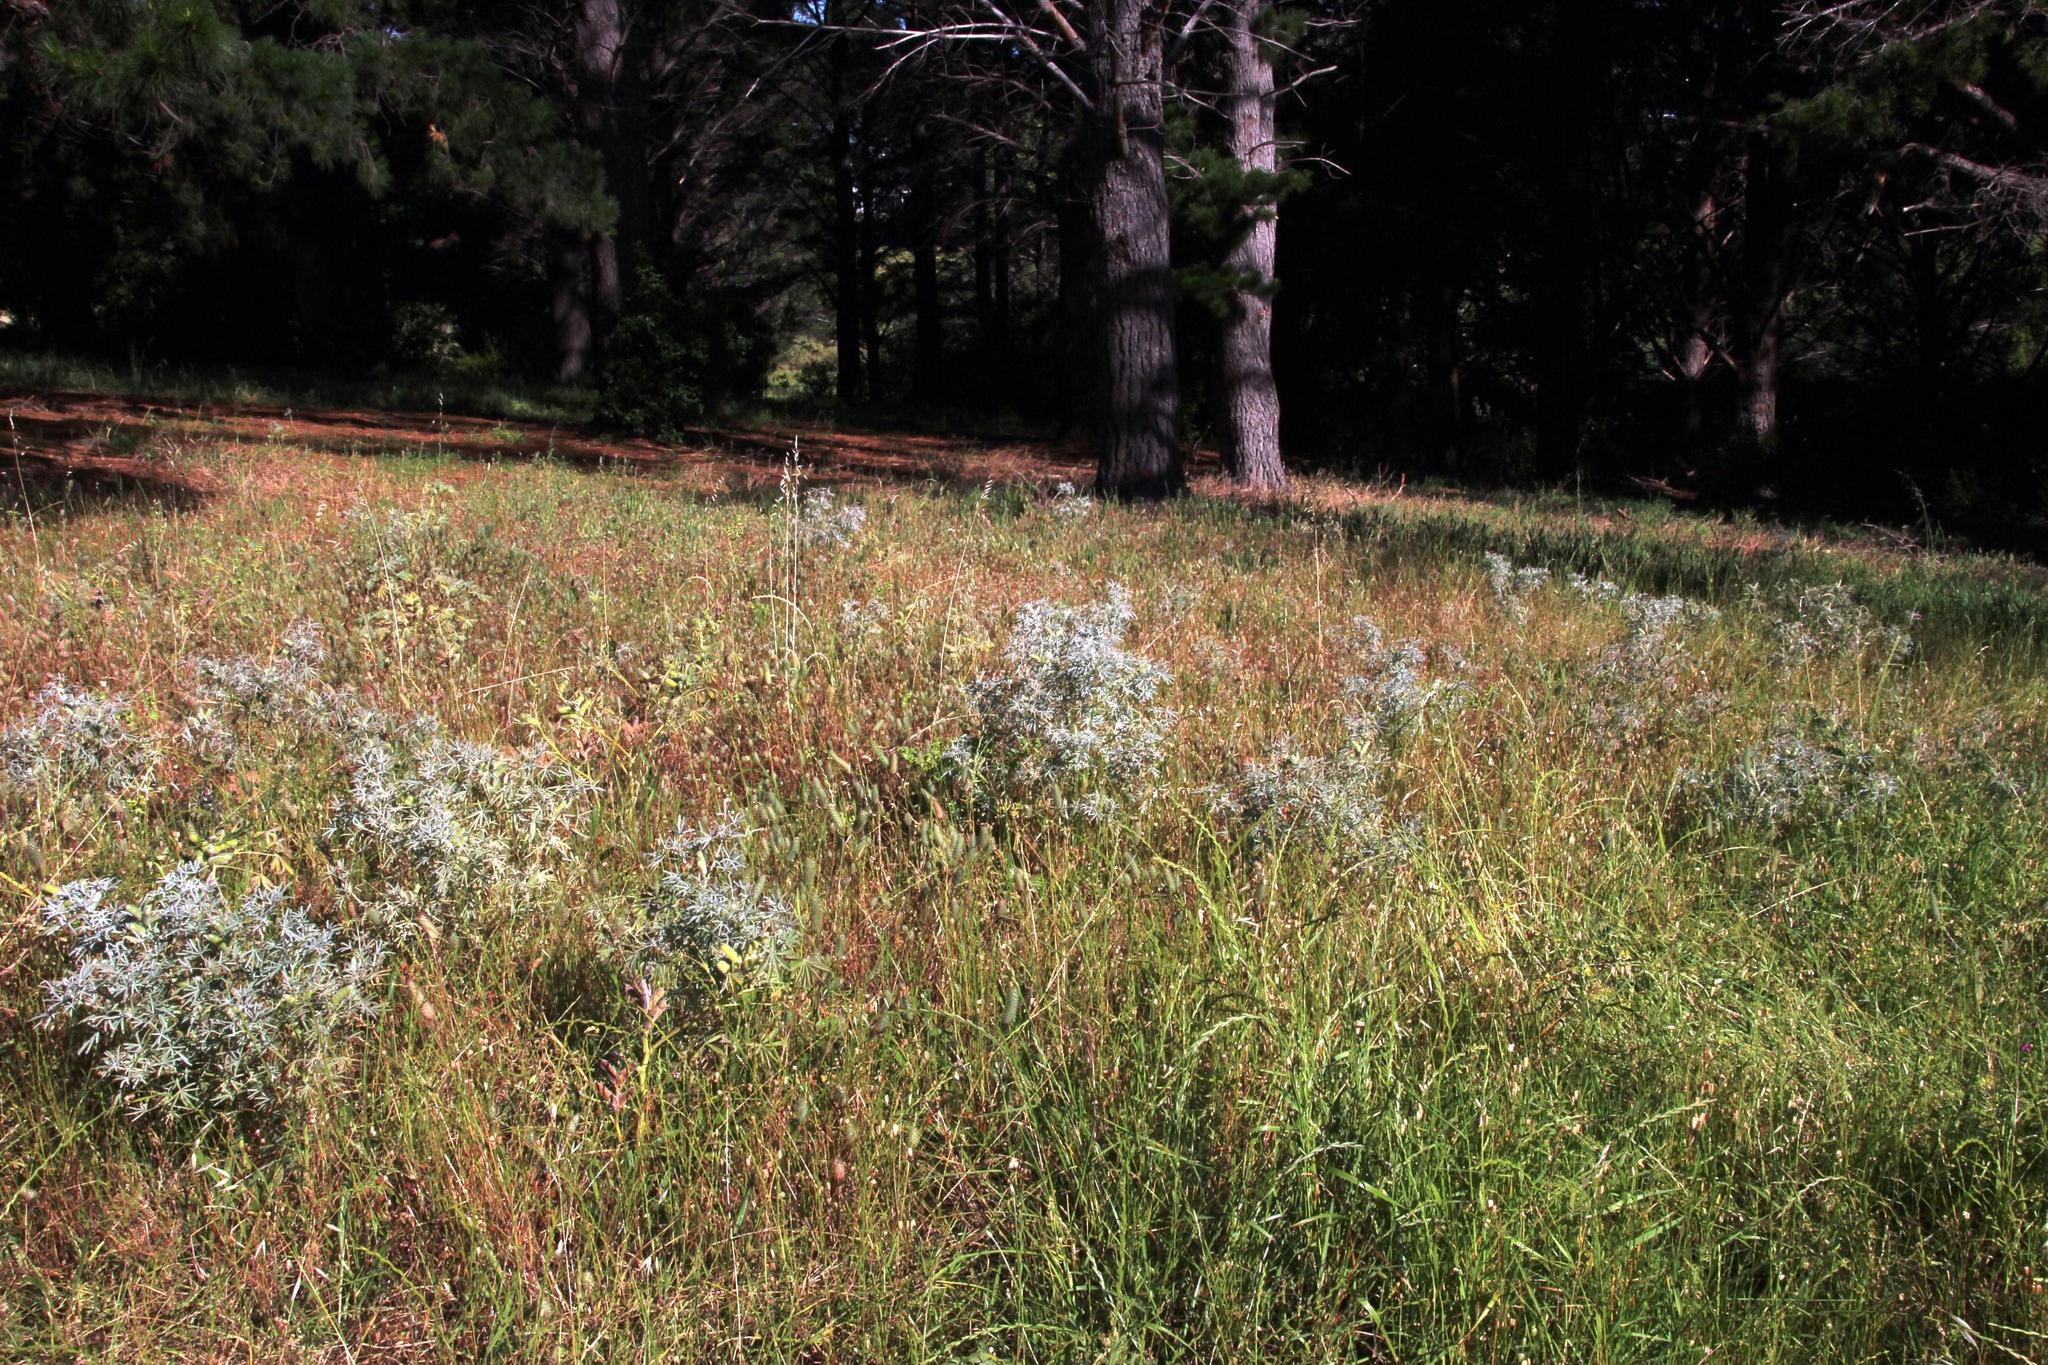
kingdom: Plantae
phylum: Tracheophyta
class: Magnoliopsida
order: Fabales
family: Fabaceae
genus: Lupinus
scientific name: Lupinus angustifolius
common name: Narrow-leaved lupin
